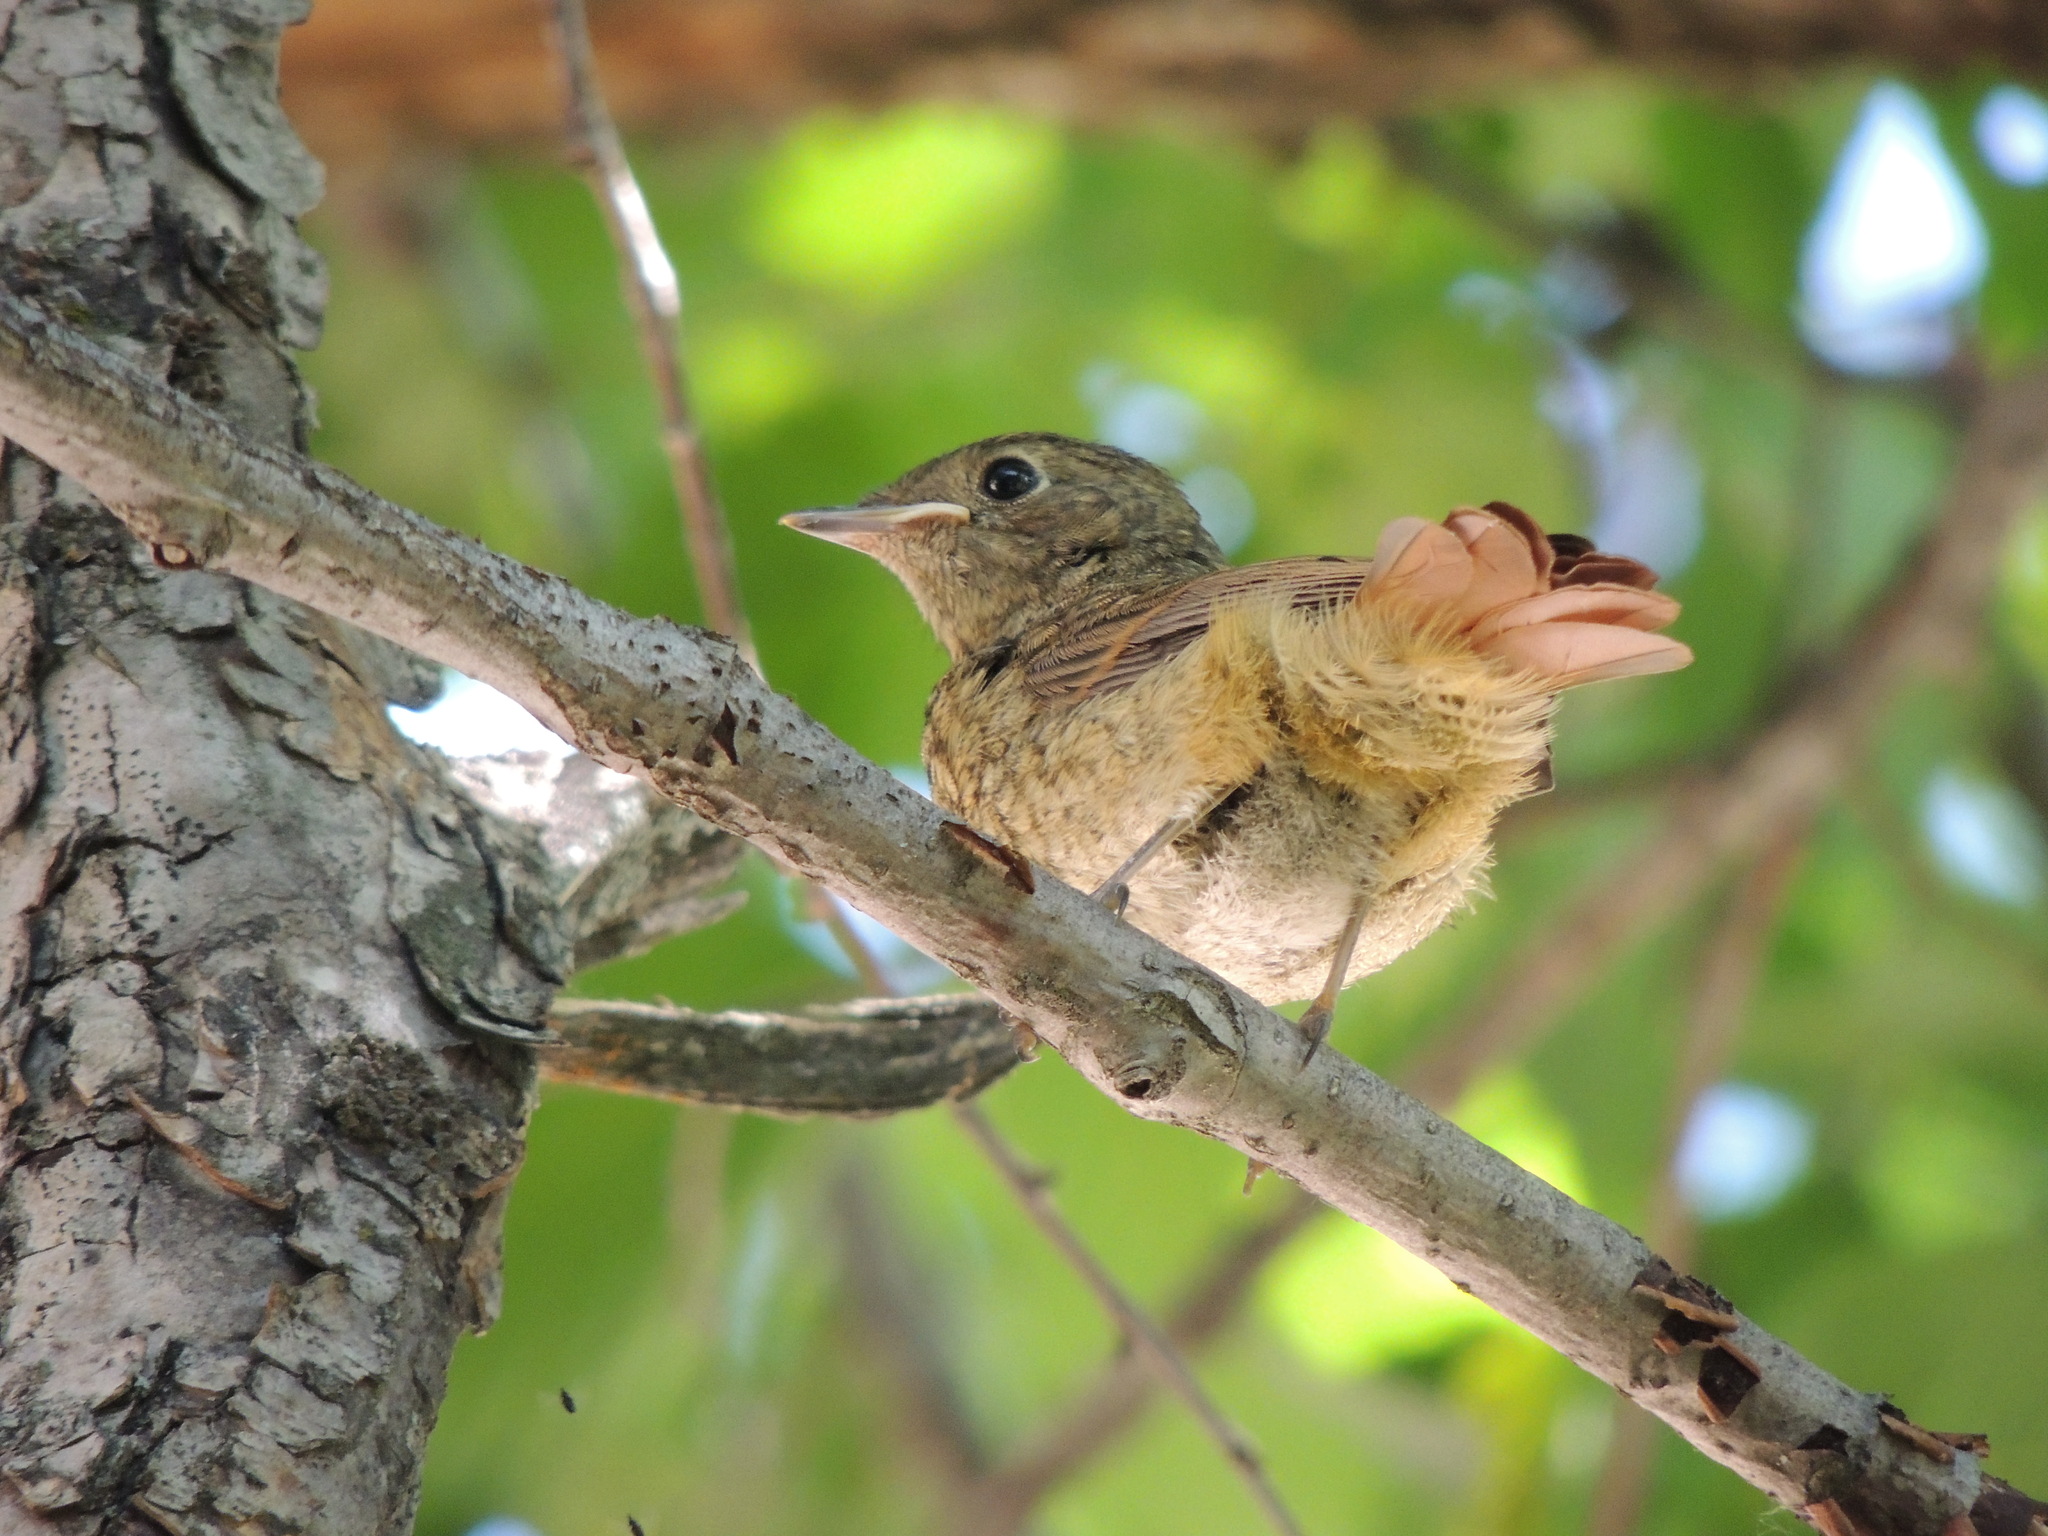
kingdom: Animalia
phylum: Chordata
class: Aves
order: Passeriformes
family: Muscicapidae
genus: Phoenicurus
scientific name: Phoenicurus phoenicurus
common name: Common redstart
